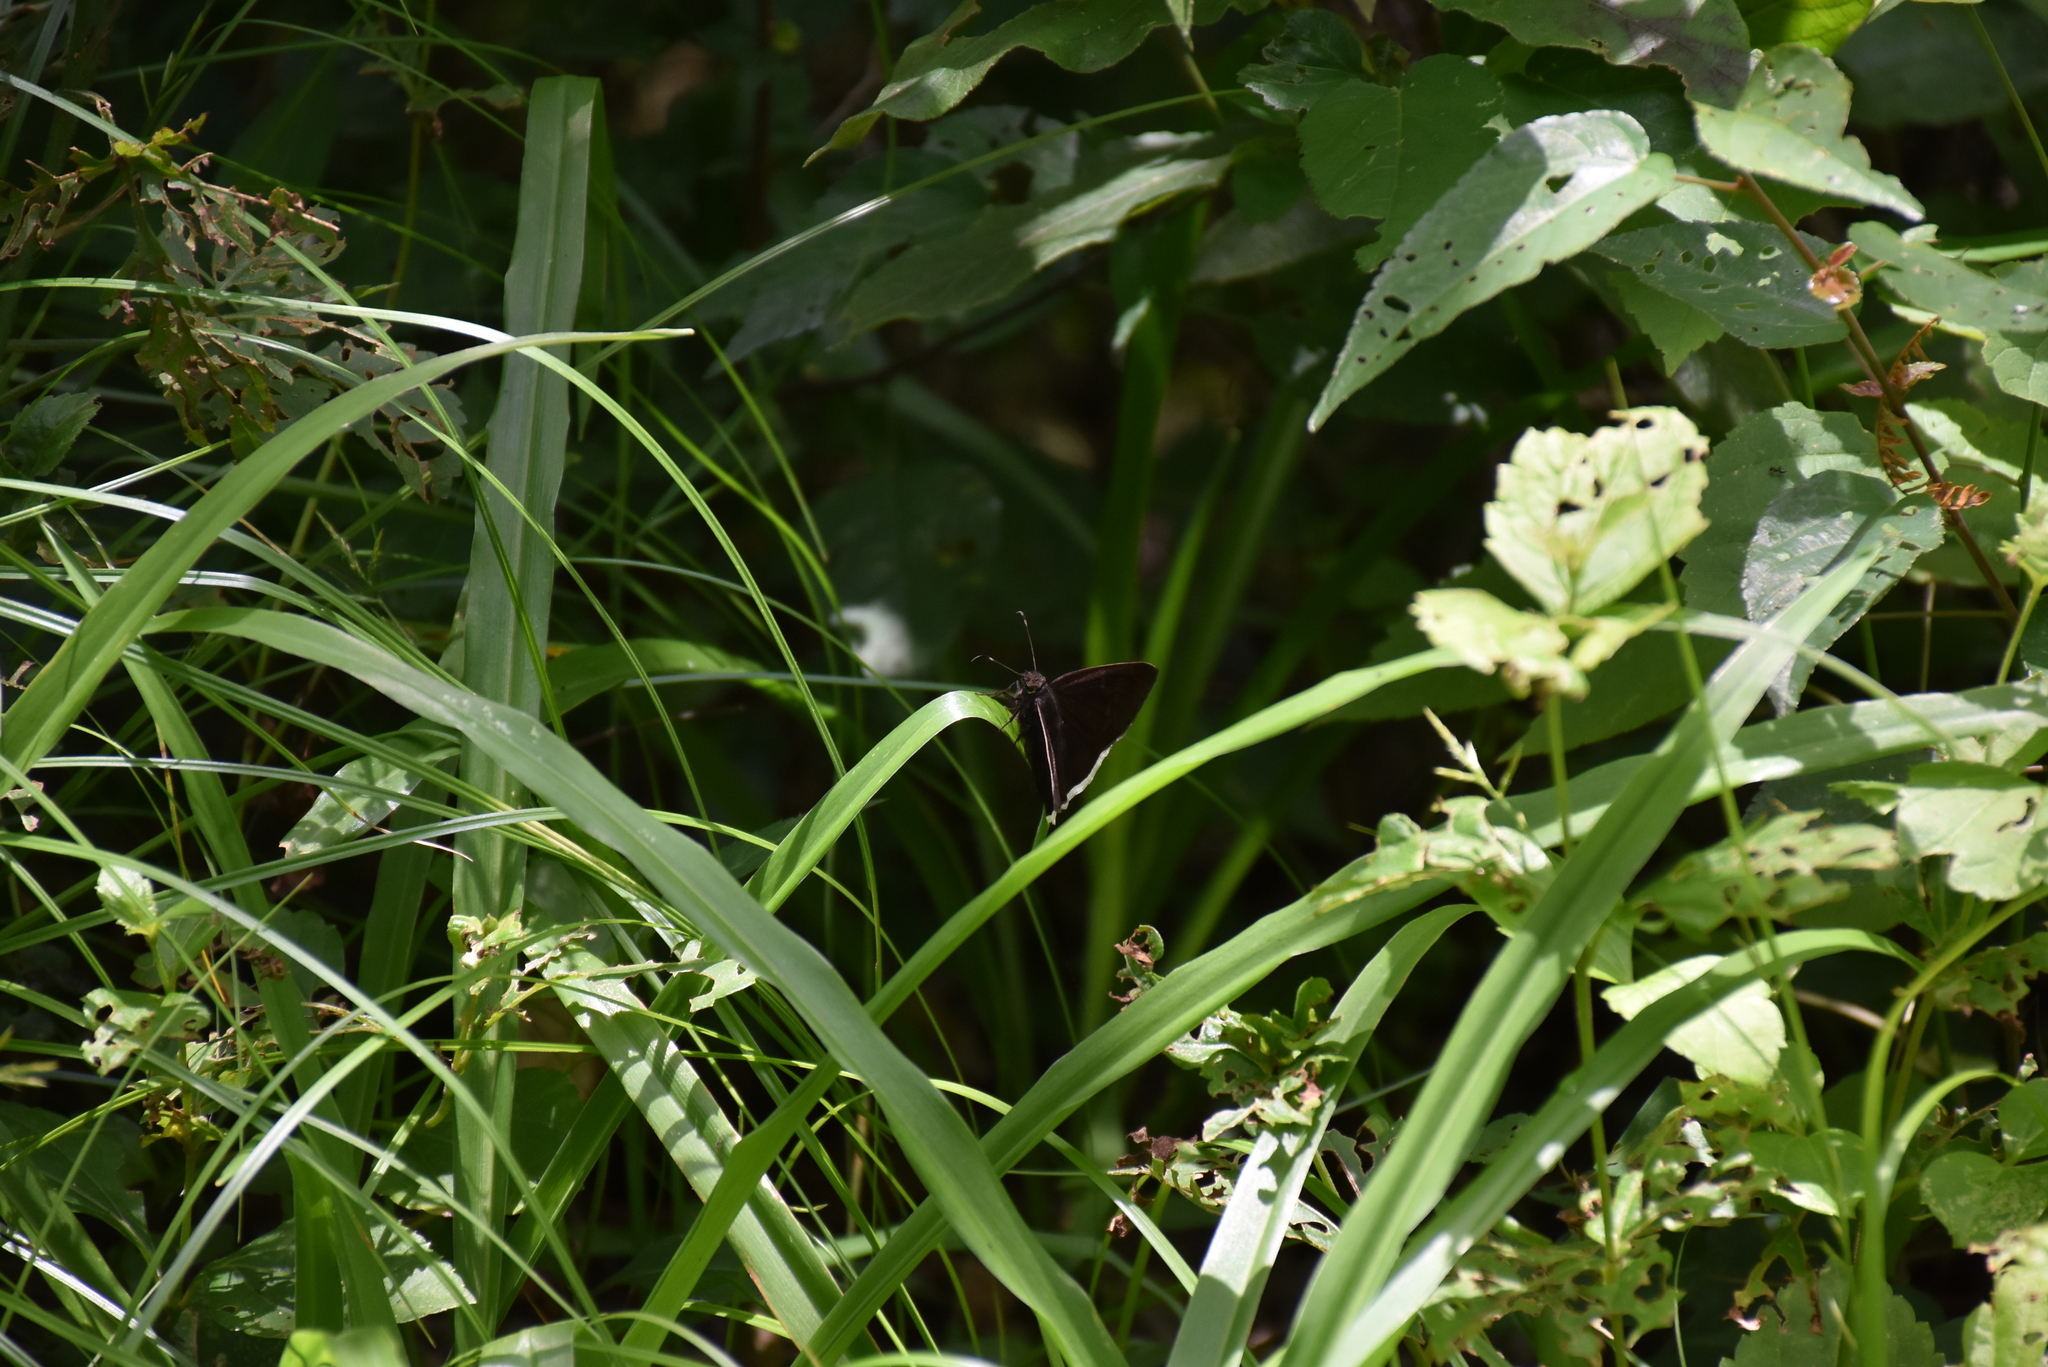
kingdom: Animalia
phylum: Arthropoda
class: Insecta
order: Lepidoptera
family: Hesperiidae
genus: Achalarus
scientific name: Achalarus Murgaria jalapus
